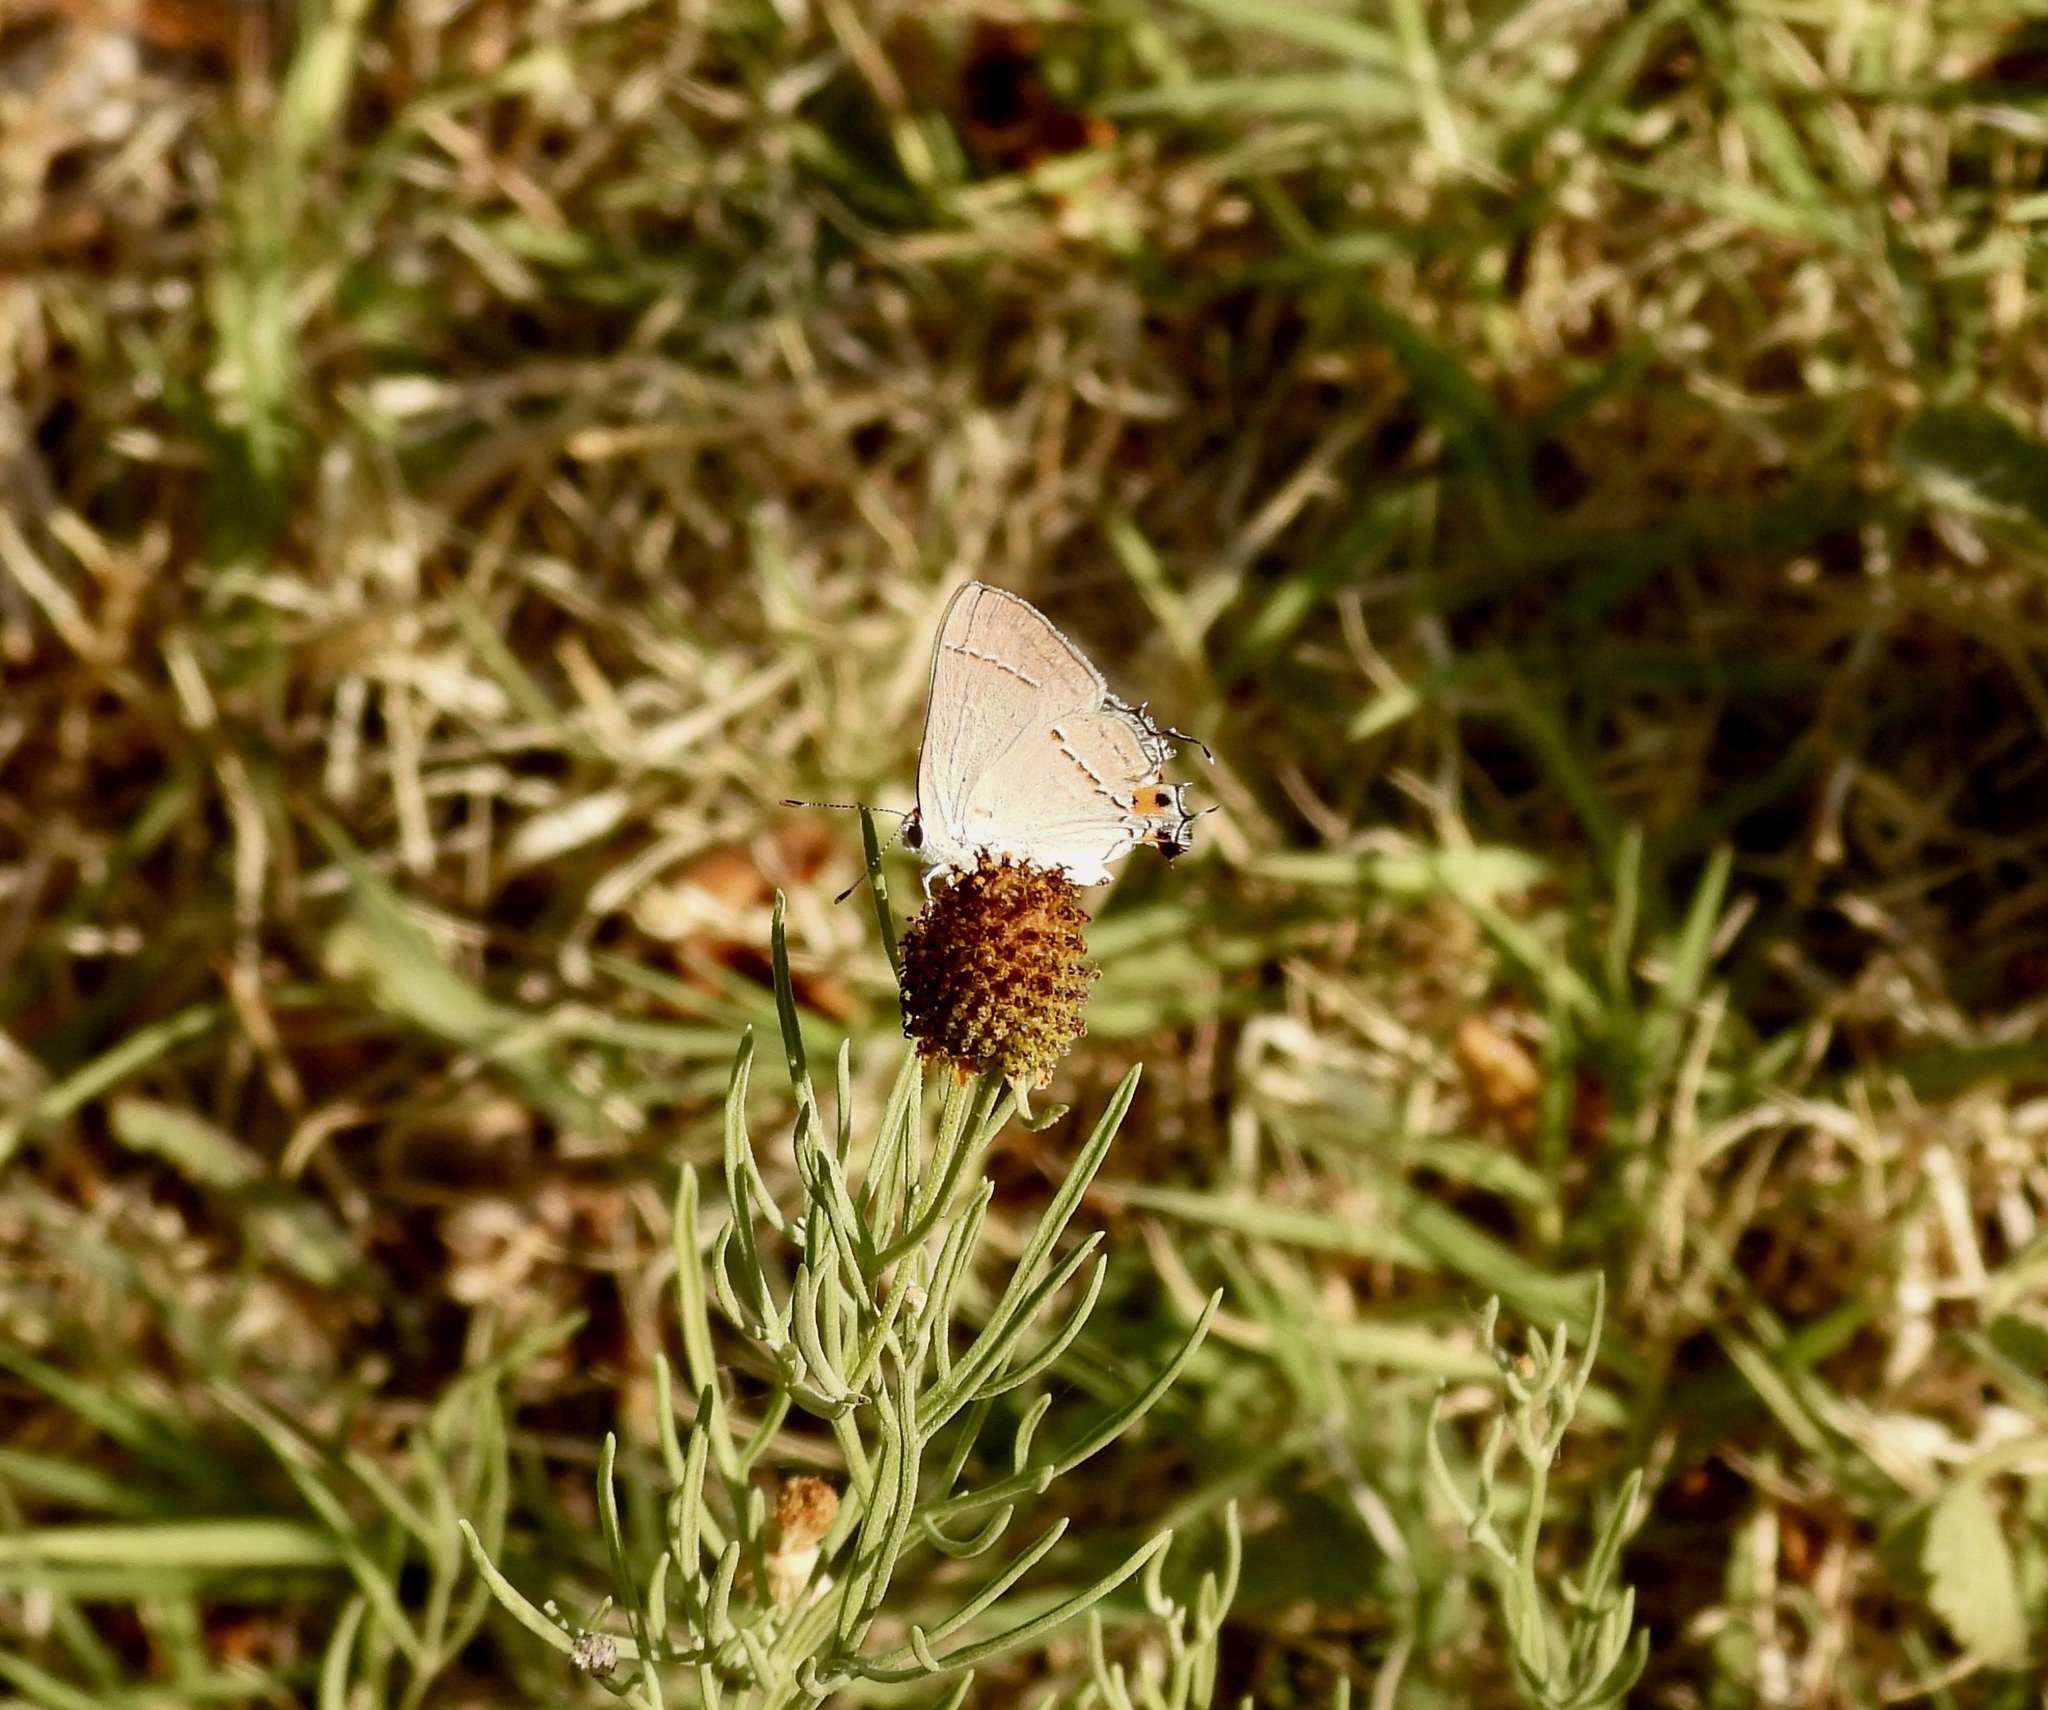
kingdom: Animalia
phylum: Arthropoda
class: Insecta
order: Lepidoptera
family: Lycaenidae
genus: Strymon
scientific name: Strymon melinus
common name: Gray hairstreak
